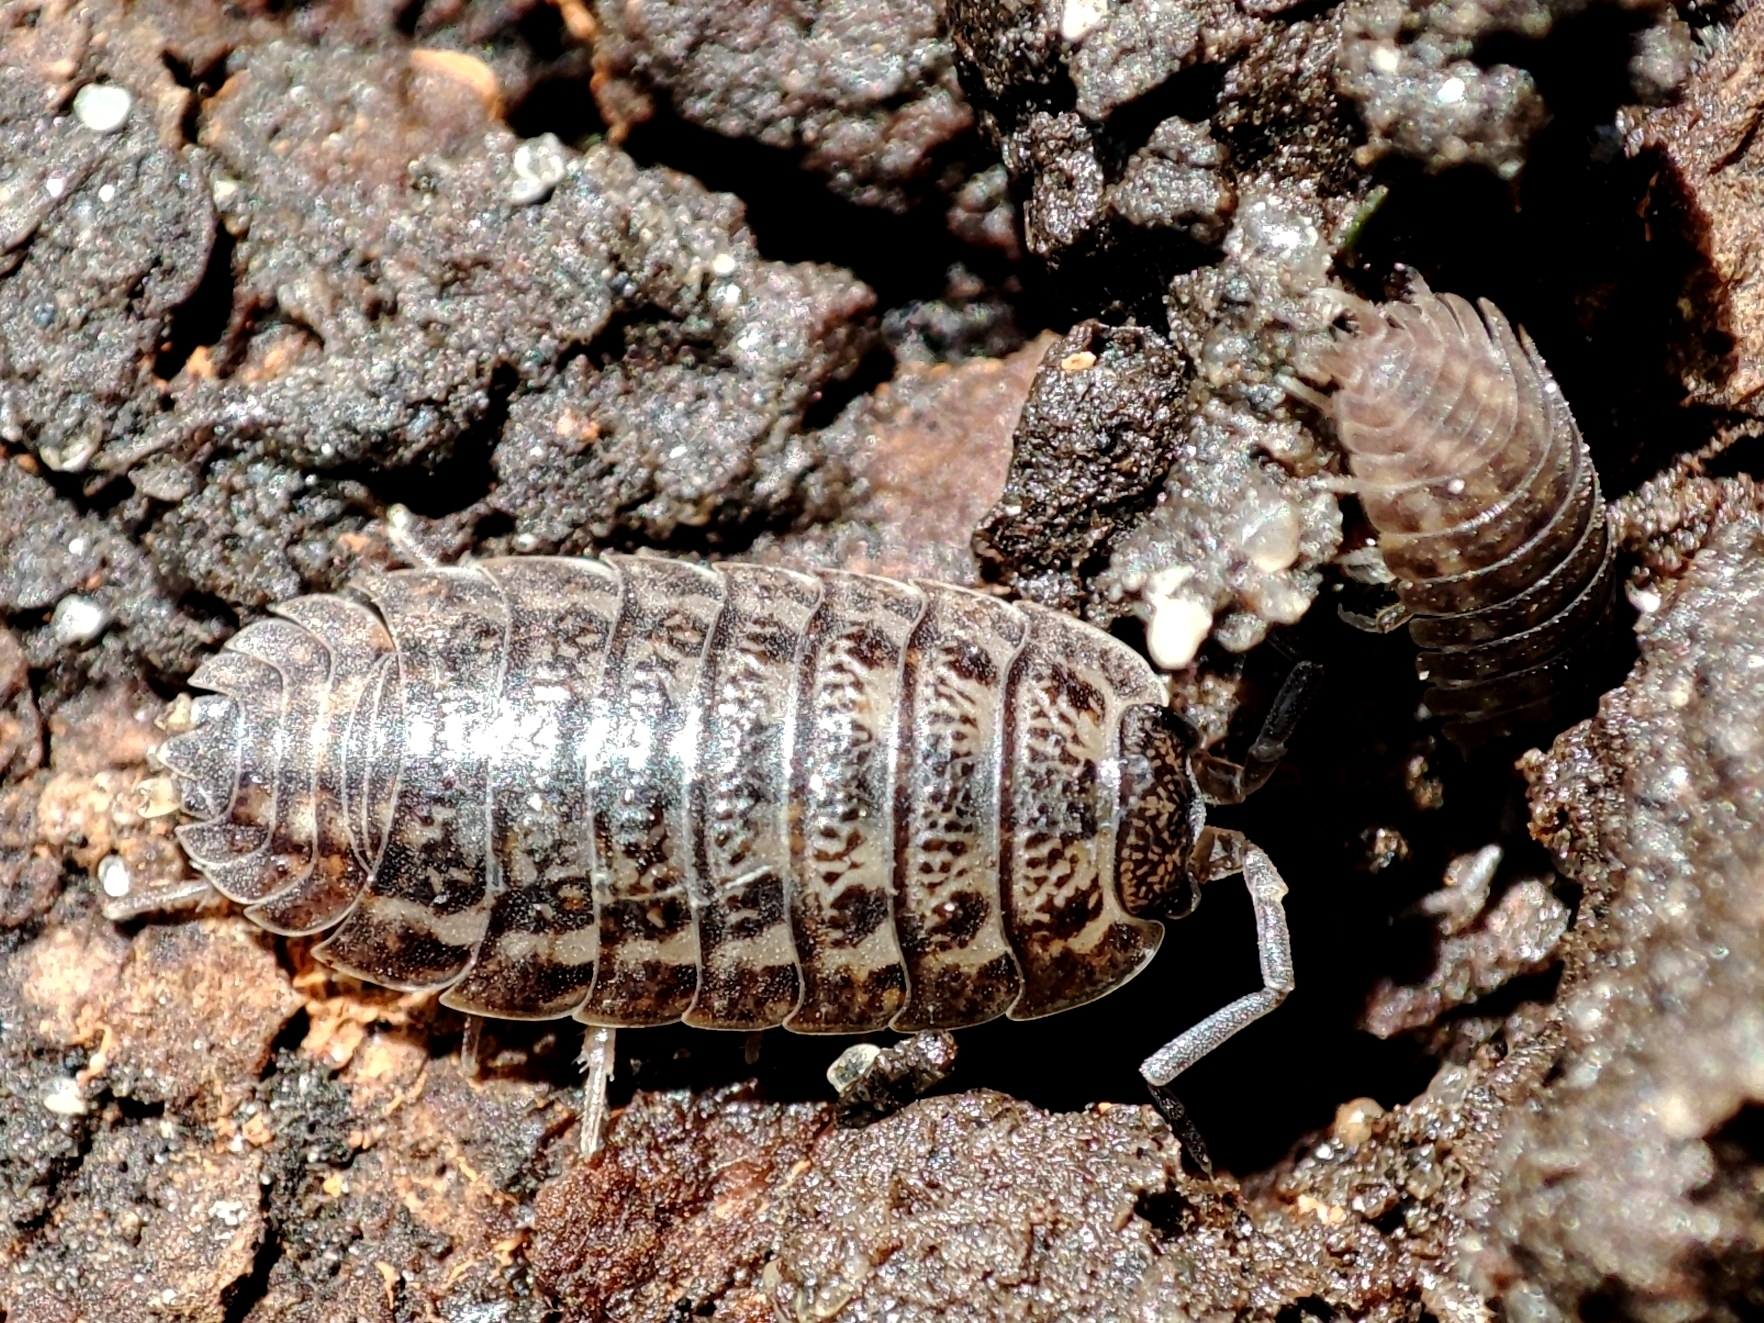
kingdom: Animalia
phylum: Arthropoda
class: Malacostraca
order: Isopoda
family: Trachelipodidae
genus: Trachelipus
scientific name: Trachelipus rathkii
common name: Isopod
